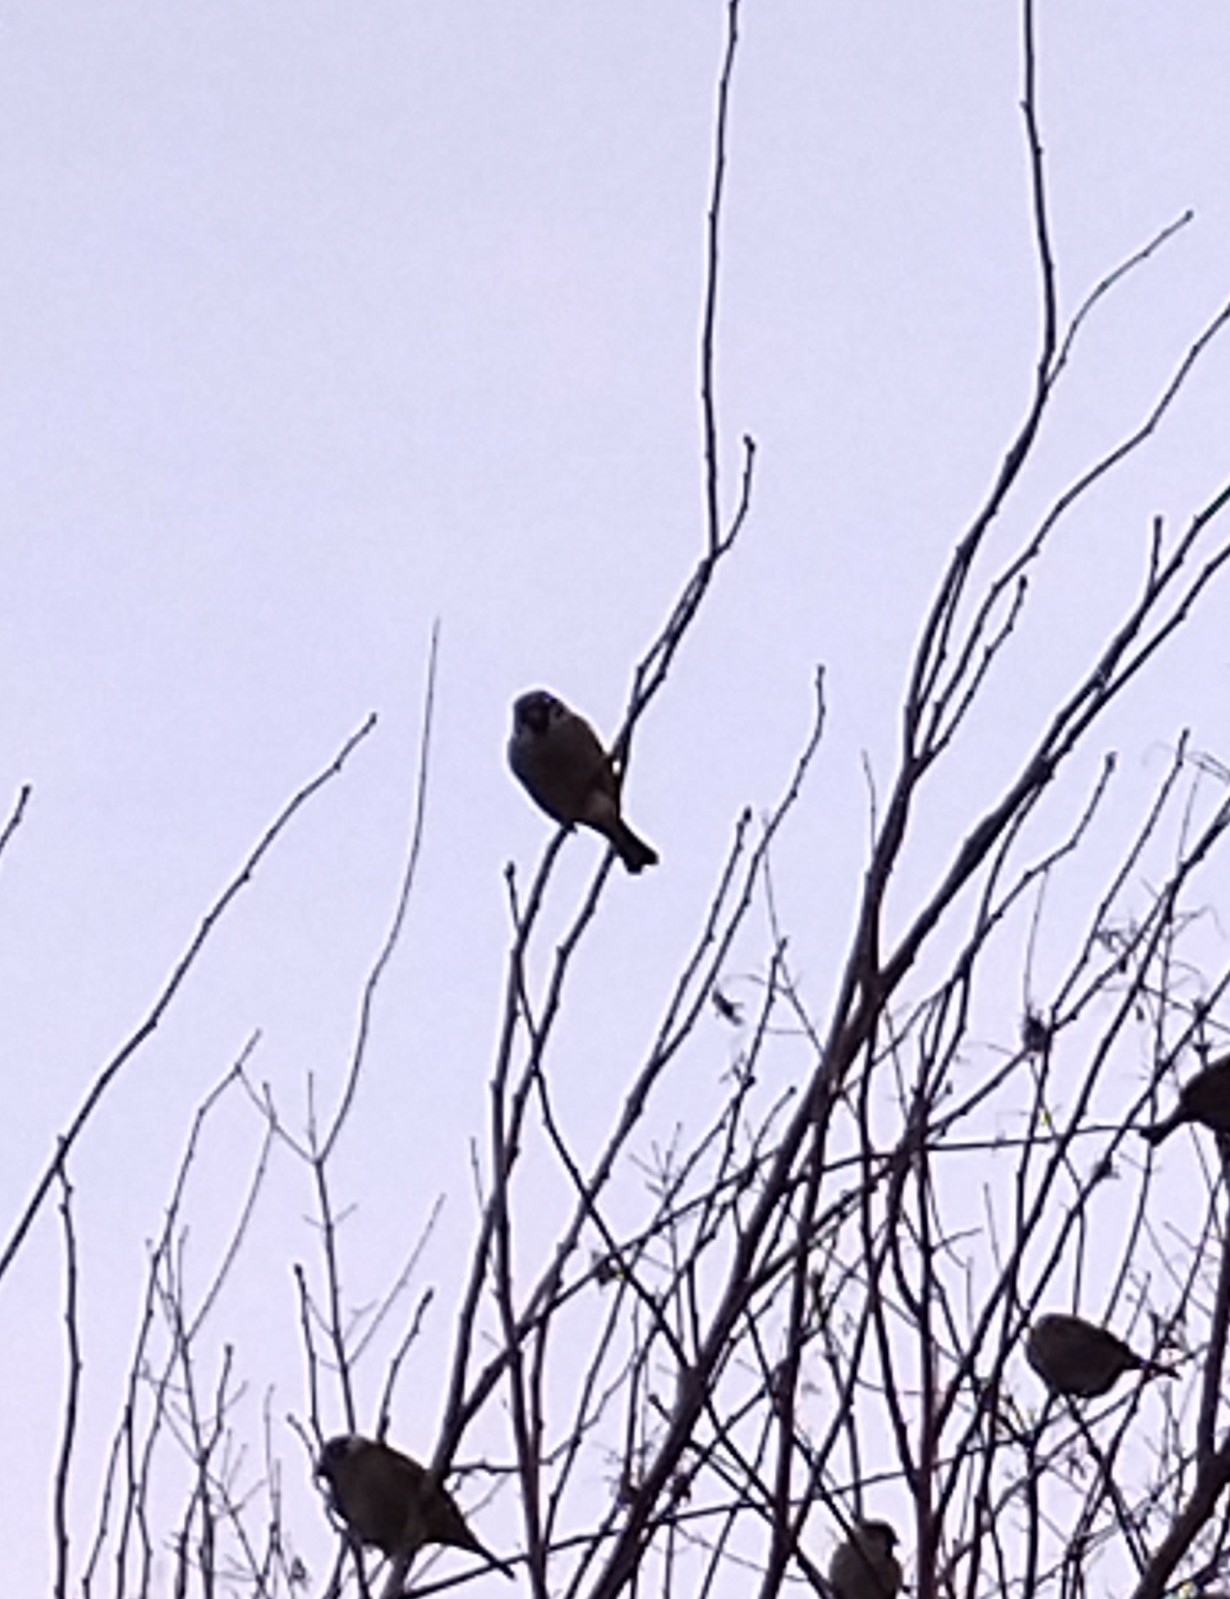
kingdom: Animalia
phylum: Chordata
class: Aves
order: Passeriformes
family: Passeridae
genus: Passer
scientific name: Passer montanus
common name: Eurasian tree sparrow
